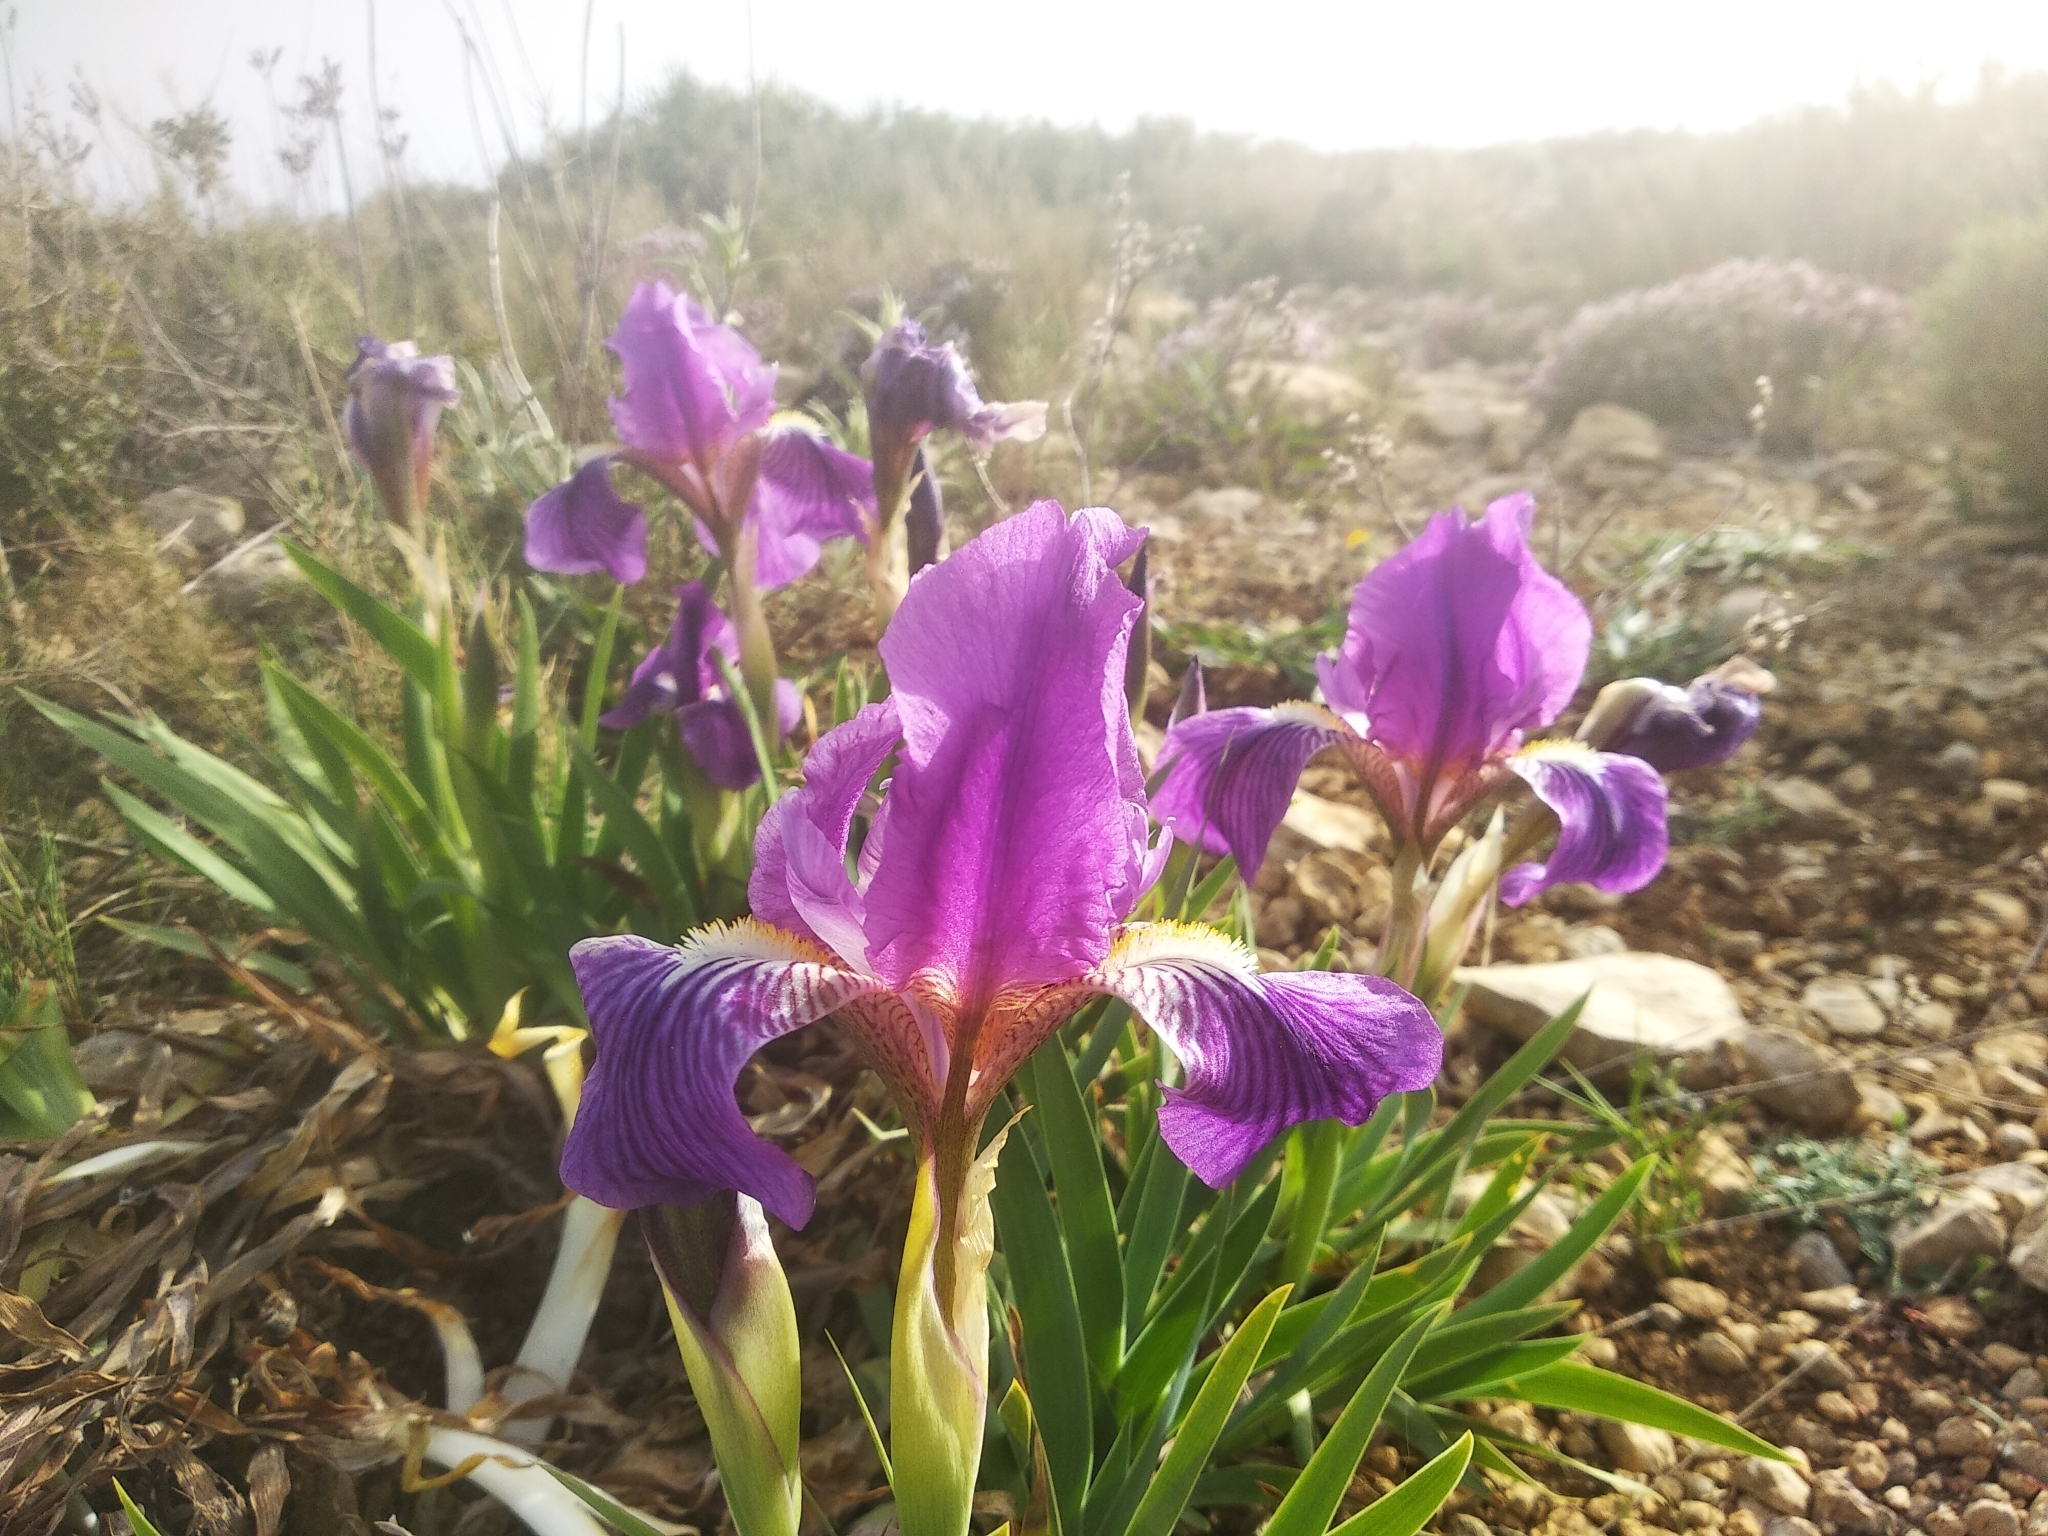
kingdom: Plantae
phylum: Tracheophyta
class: Liliopsida
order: Asparagales
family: Iridaceae
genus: Iris
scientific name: Iris lutescens
